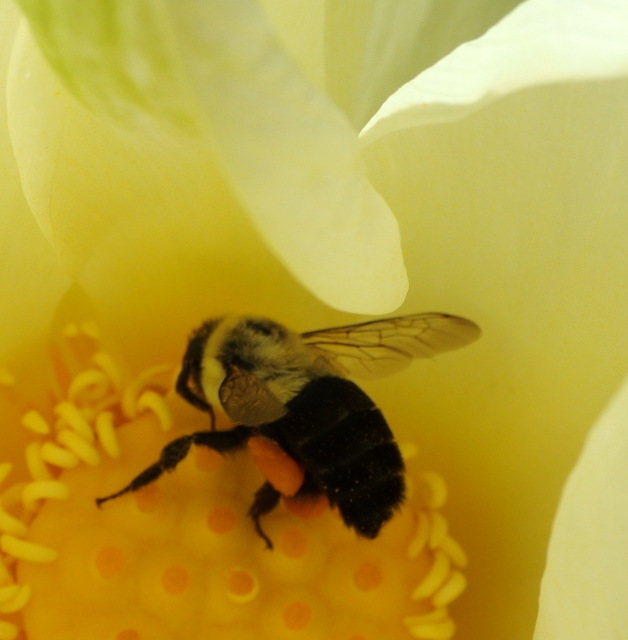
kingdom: Animalia
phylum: Arthropoda
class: Insecta
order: Hymenoptera
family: Apidae
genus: Bombus
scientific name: Bombus impatiens
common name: Common eastern bumble bee
